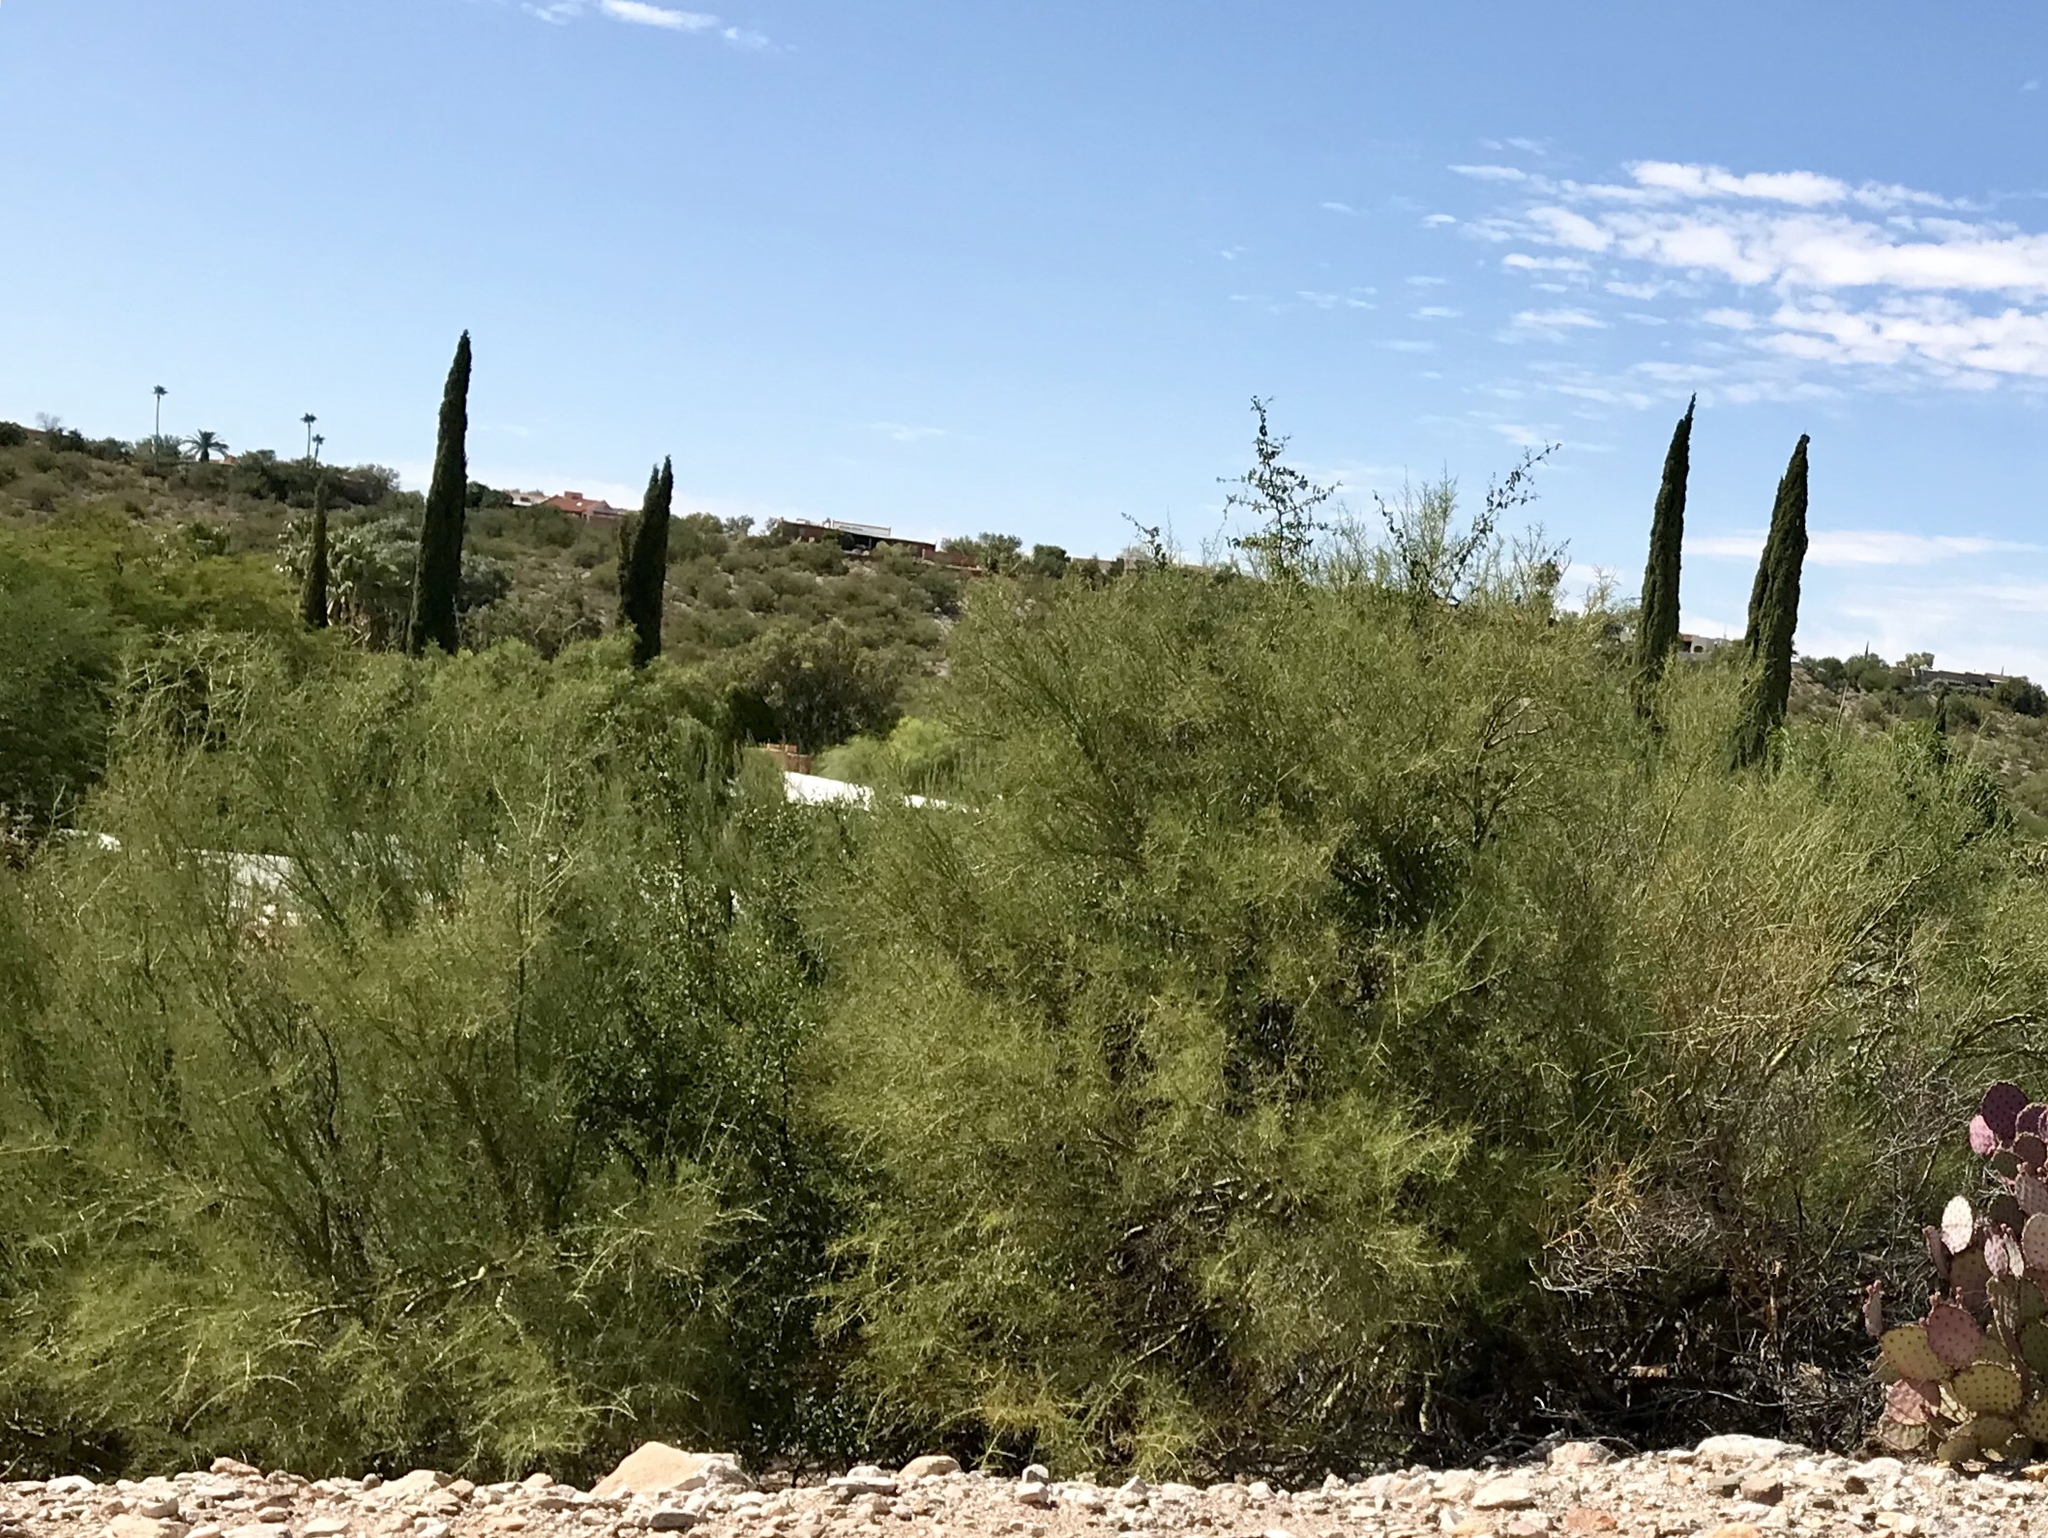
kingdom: Plantae
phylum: Tracheophyta
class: Magnoliopsida
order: Fabales
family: Fabaceae
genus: Parkinsonia
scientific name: Parkinsonia microphylla
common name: Yellow paloverde
